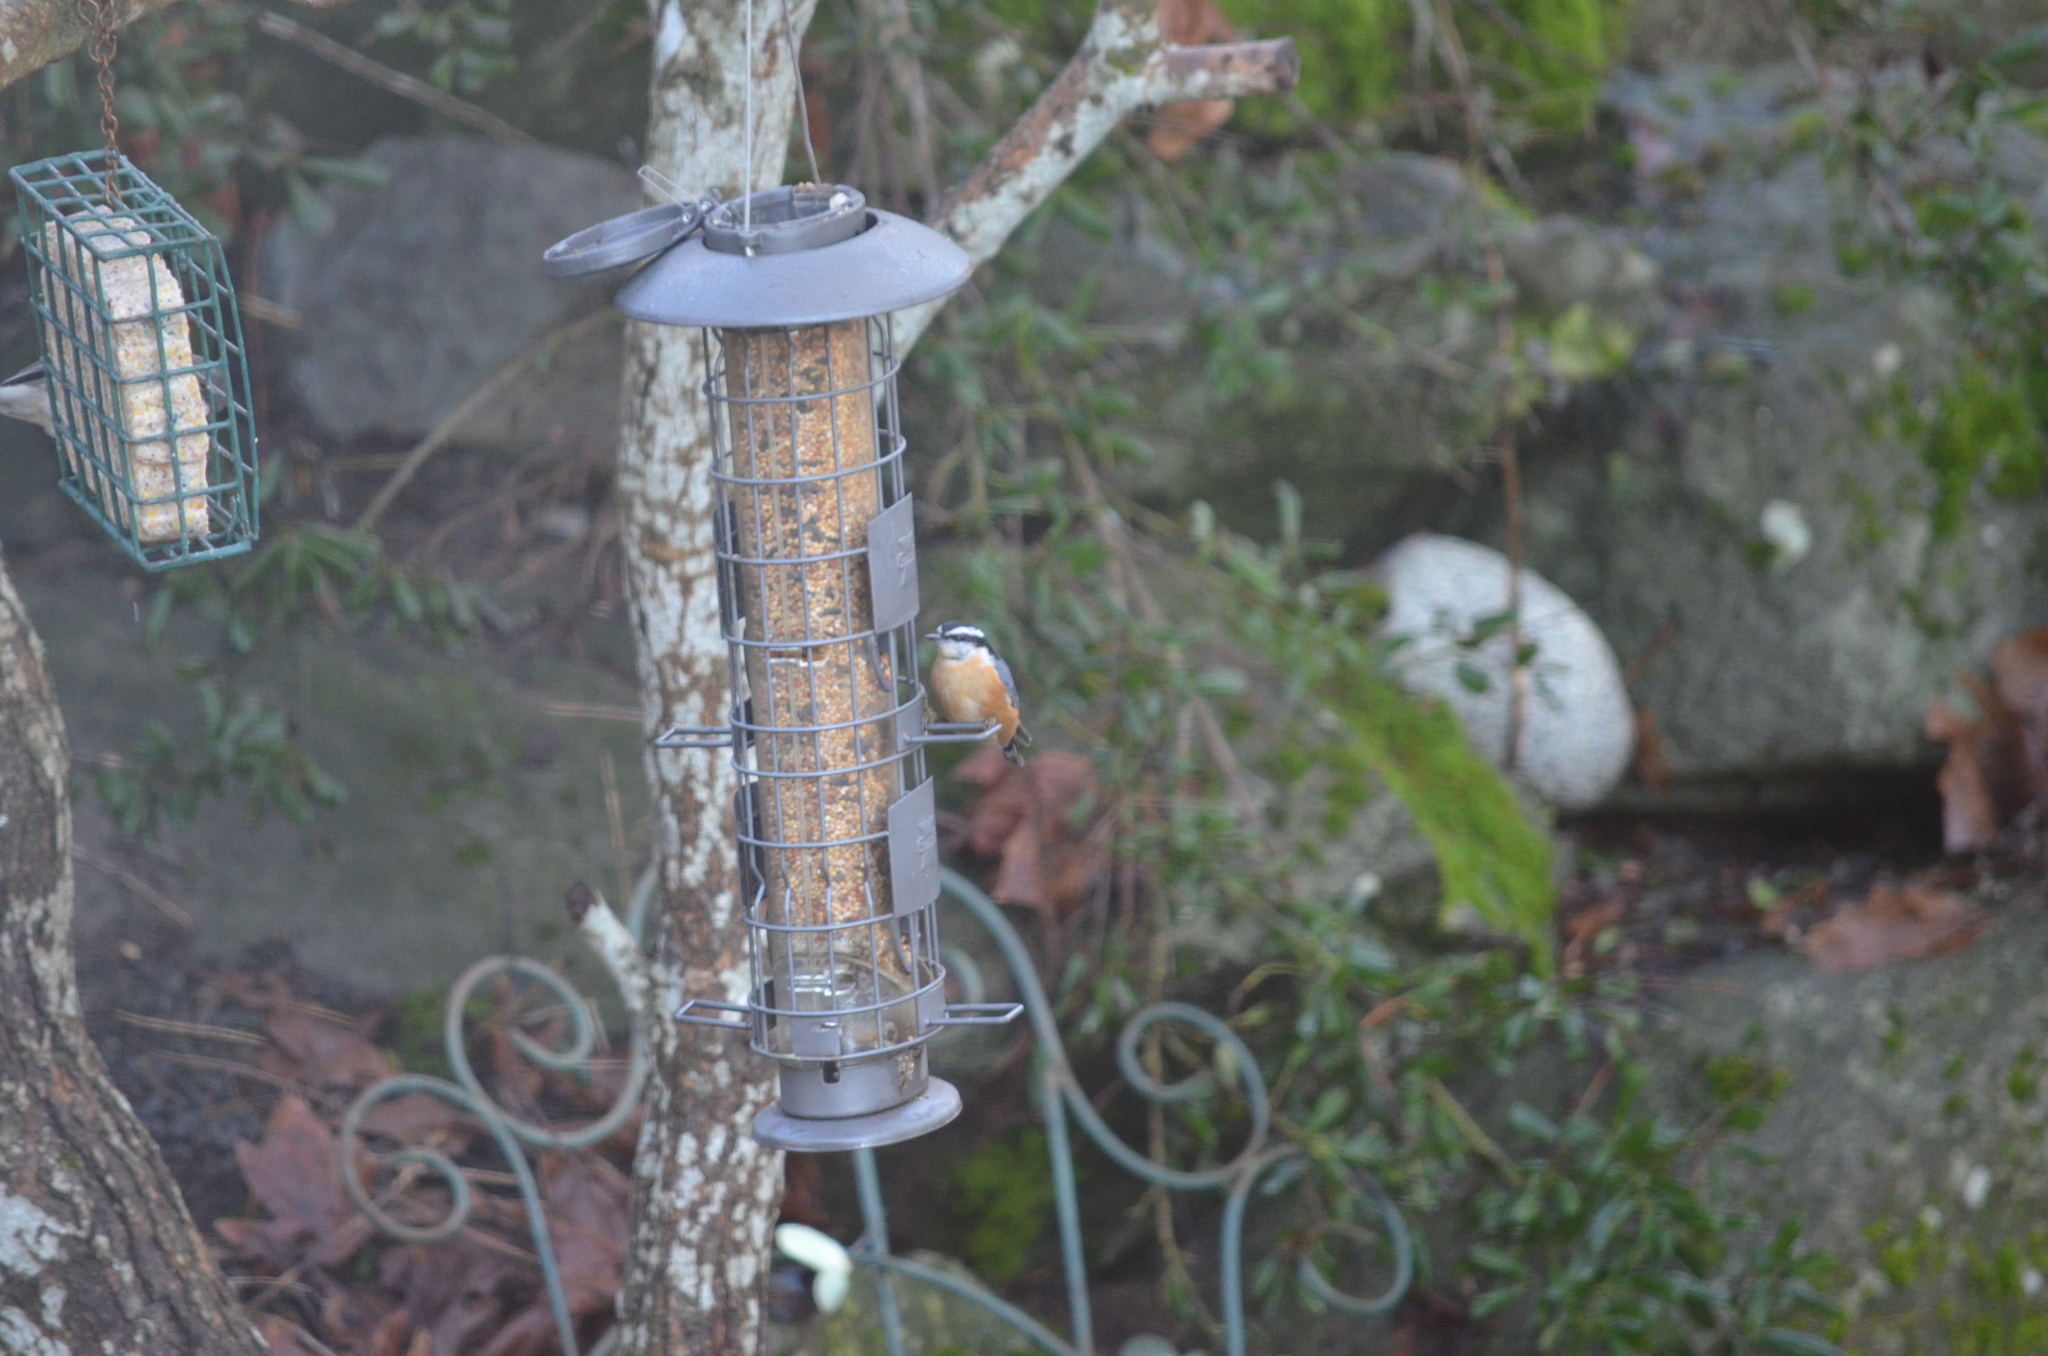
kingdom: Animalia
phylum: Chordata
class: Aves
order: Passeriformes
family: Sittidae
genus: Sitta
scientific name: Sitta canadensis
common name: Red-breasted nuthatch
